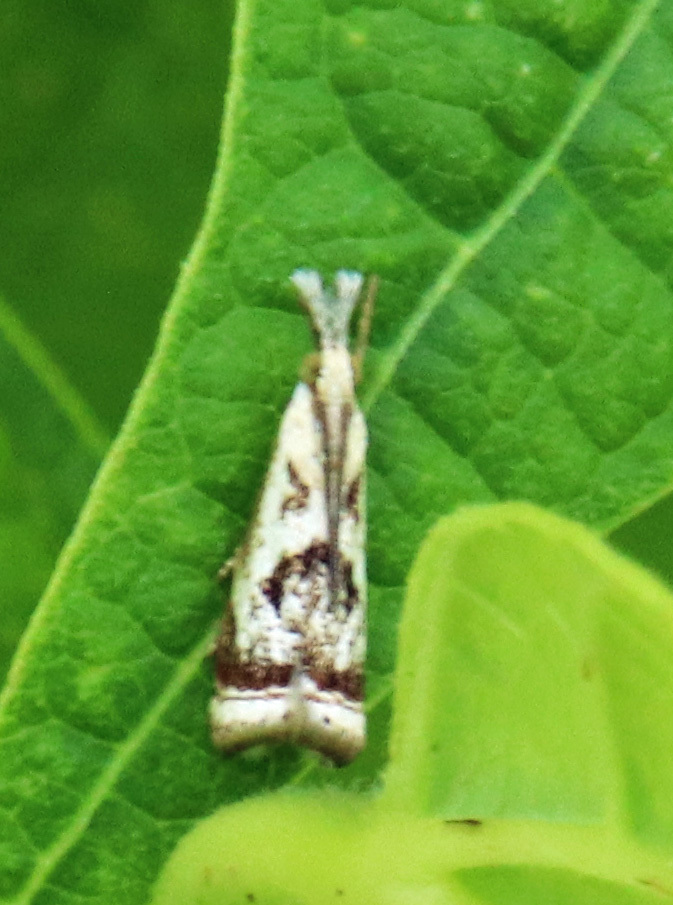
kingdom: Animalia
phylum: Arthropoda
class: Insecta
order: Lepidoptera
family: Crambidae
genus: Microcrambus
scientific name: Microcrambus elegans
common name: Elegant grass-veneer
